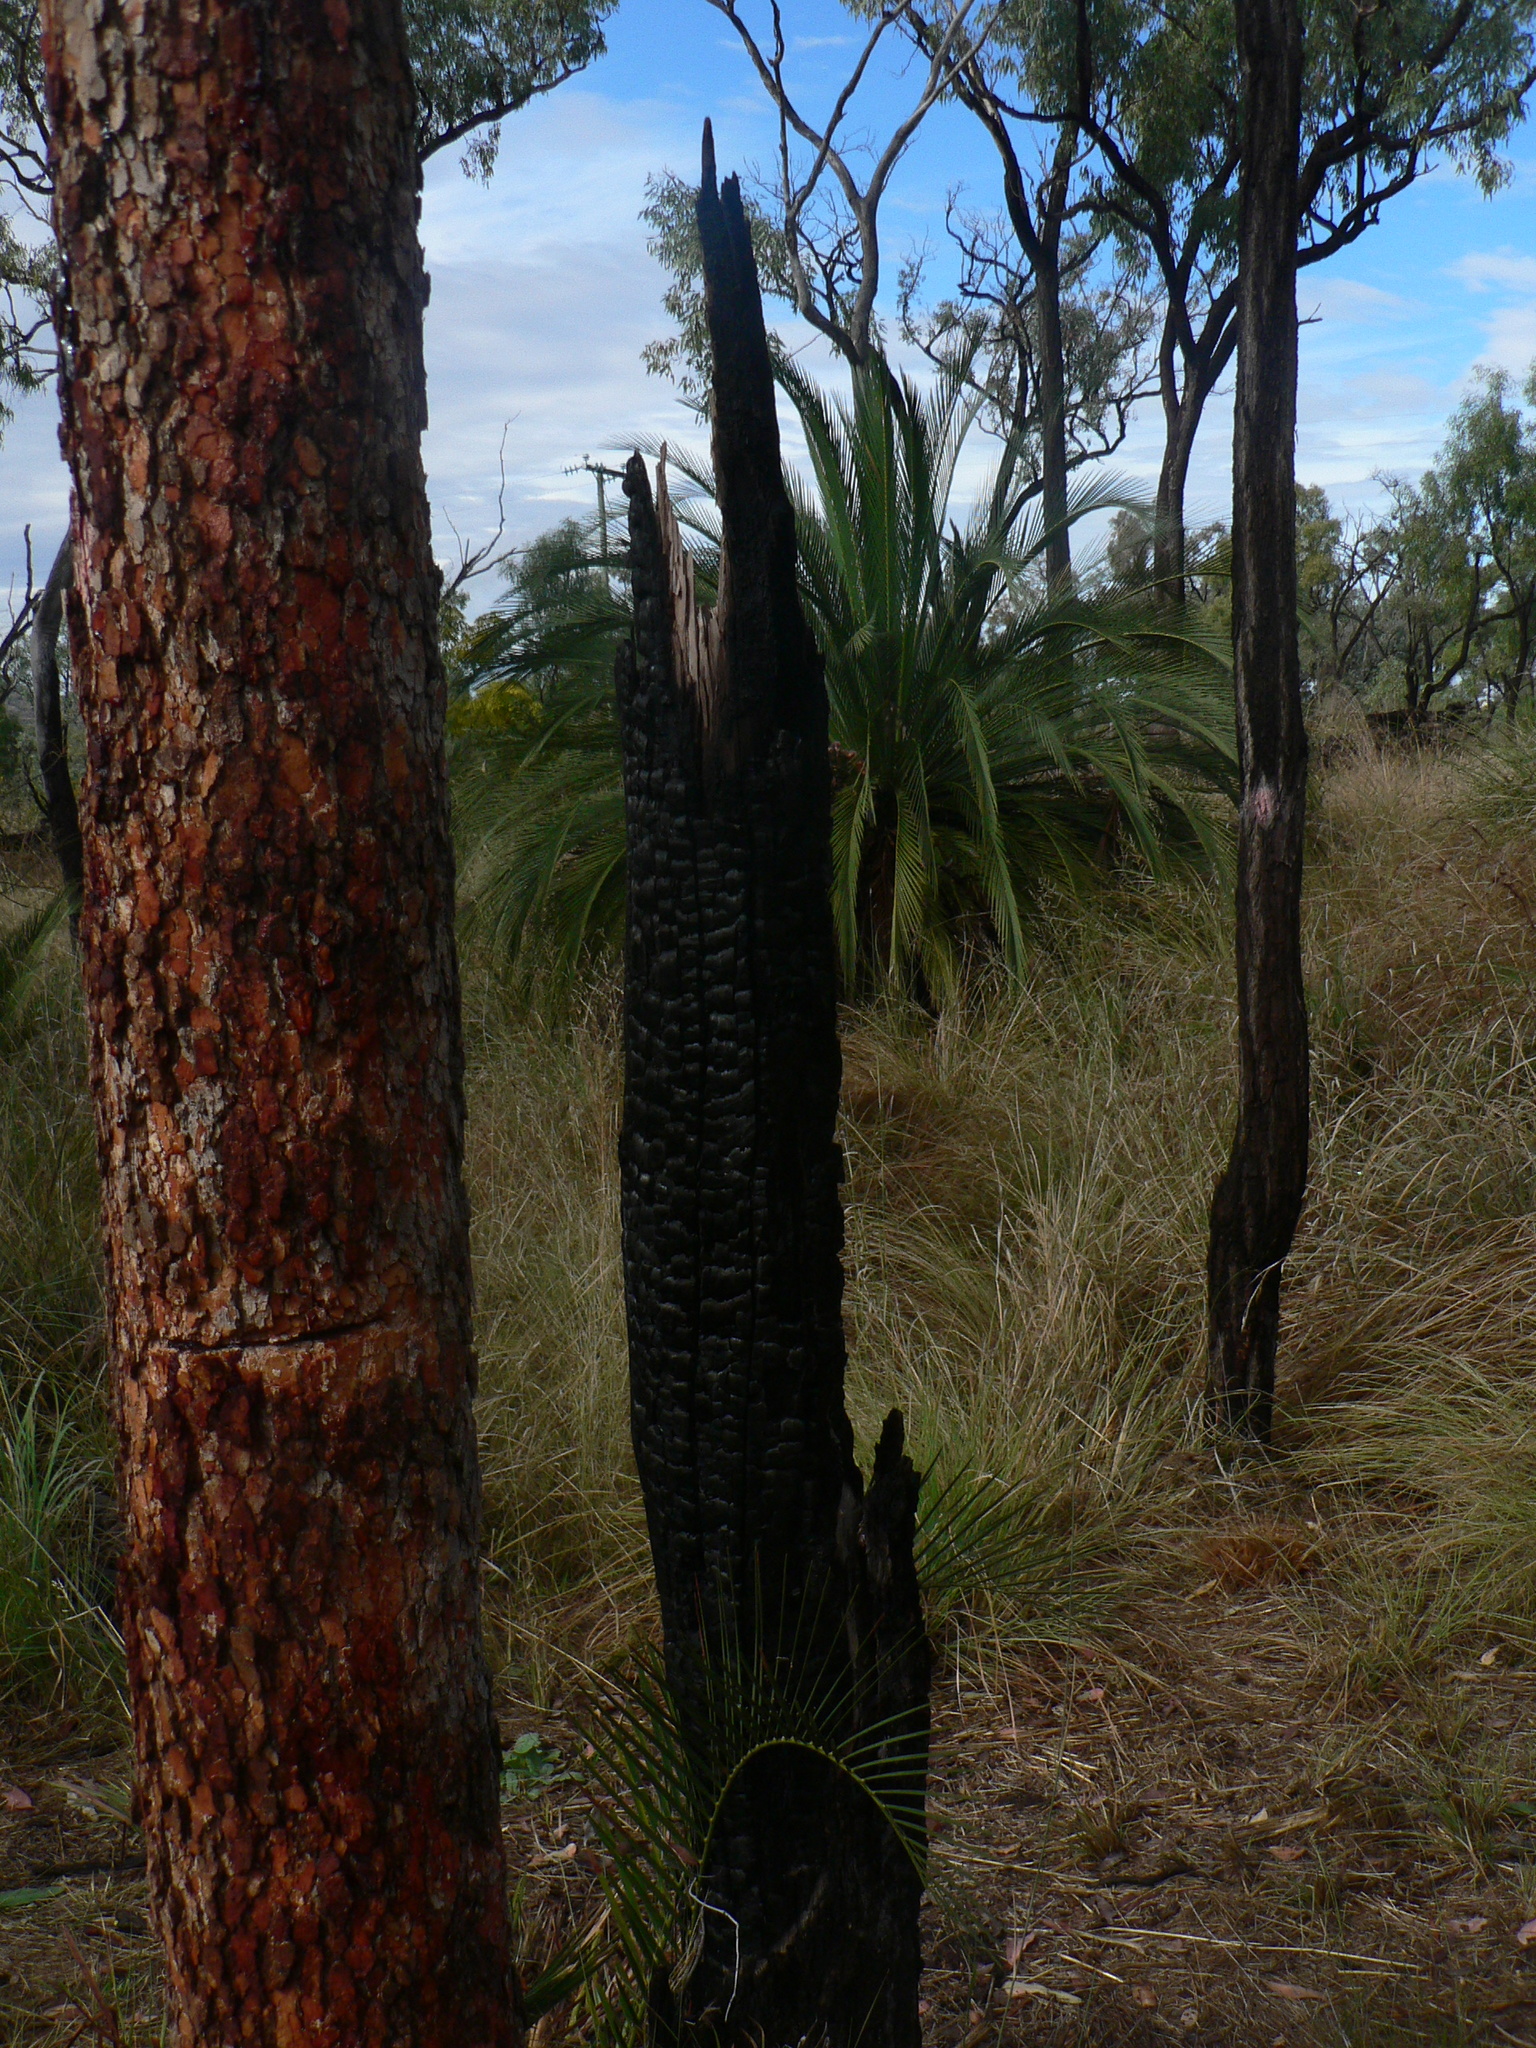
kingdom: Plantae
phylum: Tracheophyta
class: Cycadopsida
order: Cycadales
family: Zamiaceae
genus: Macrozamia
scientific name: Macrozamia moorei
